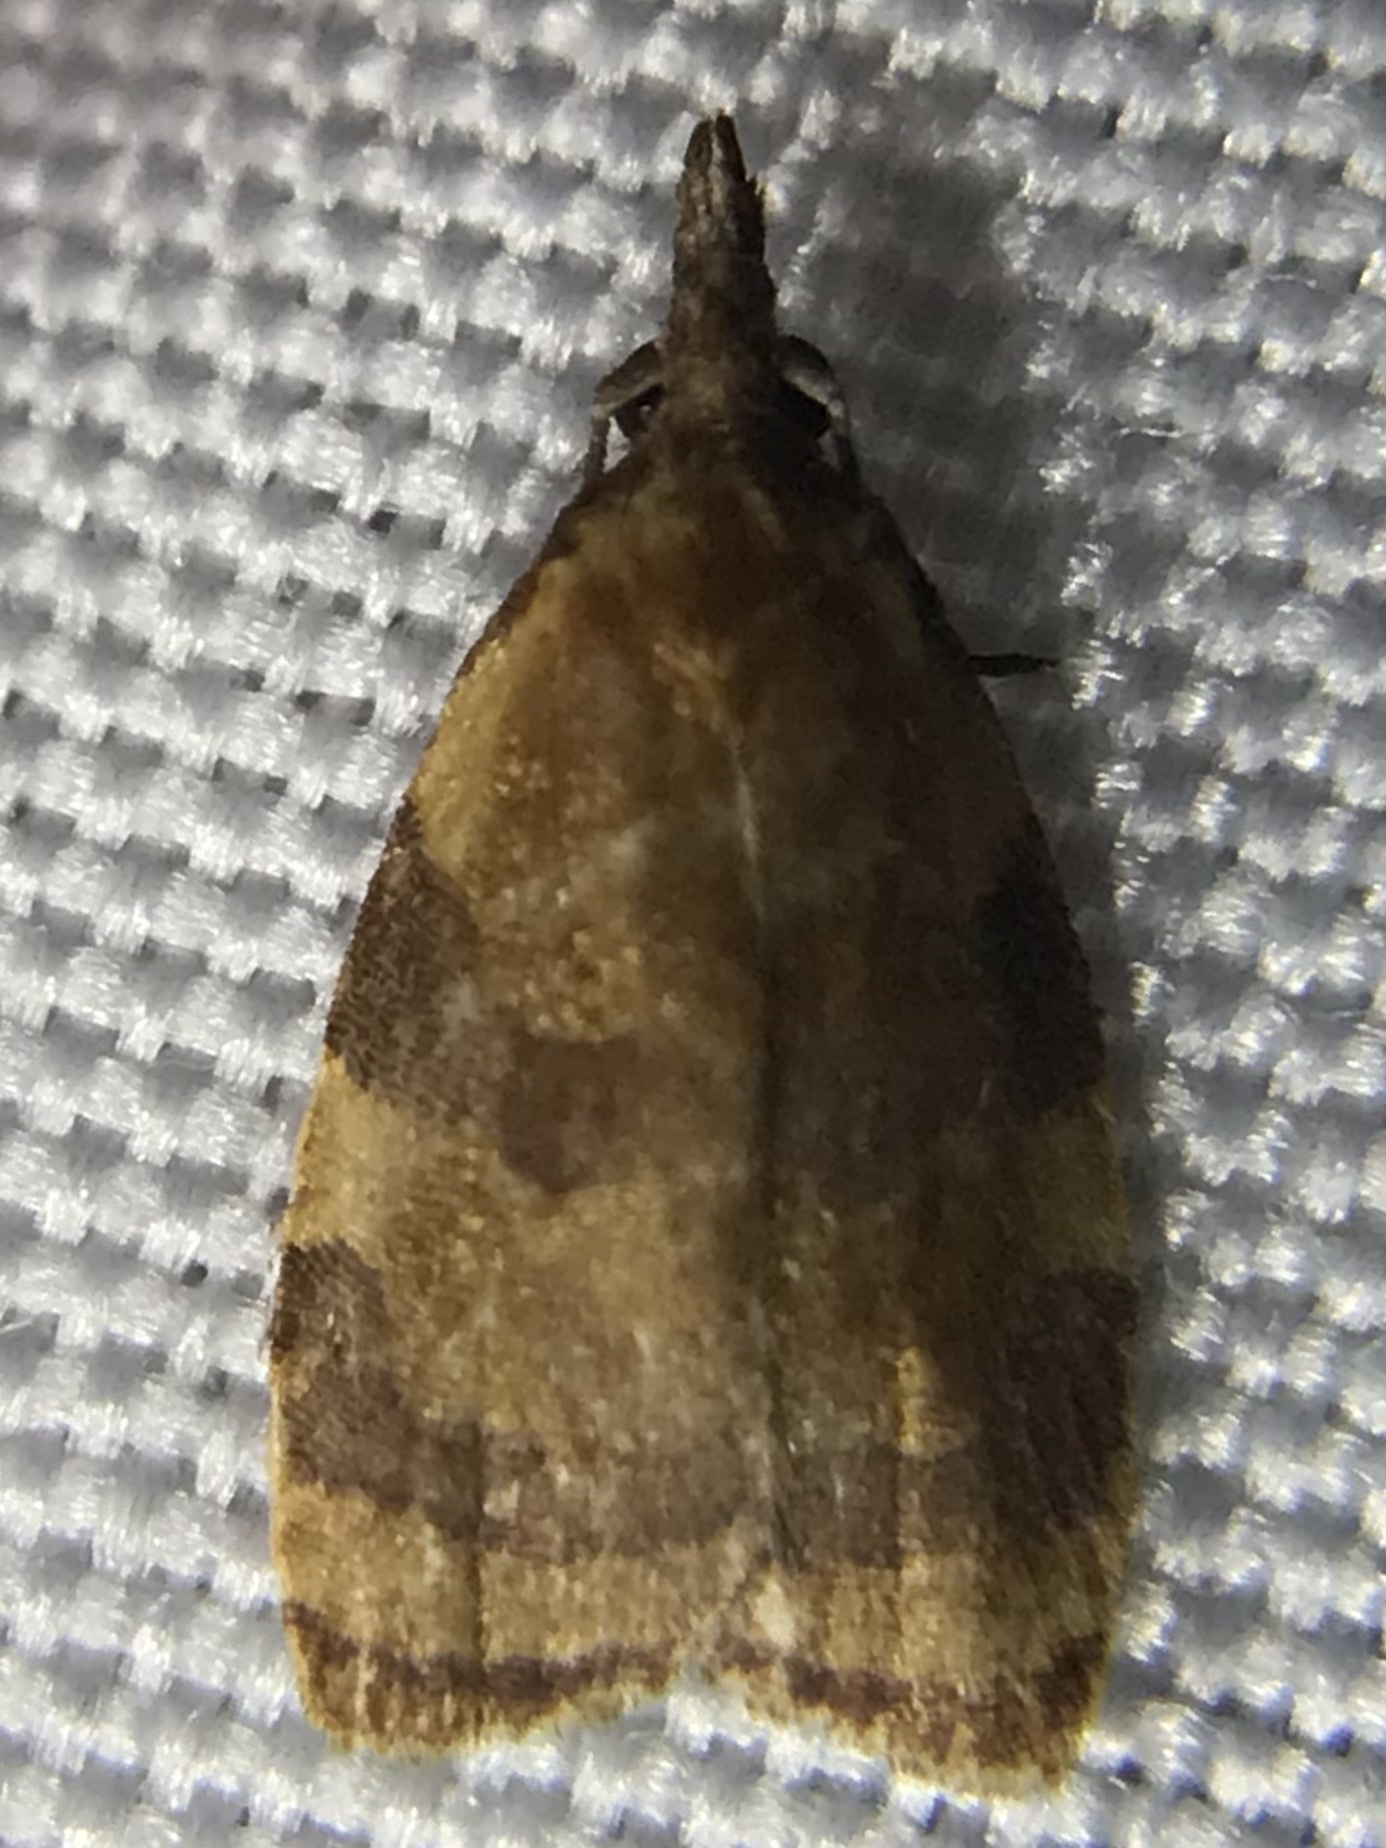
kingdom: Animalia
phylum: Arthropoda
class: Insecta
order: Lepidoptera
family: Tortricidae
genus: Cenopis
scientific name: Cenopis diluticostana
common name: Spring dead-leaf roller moth
